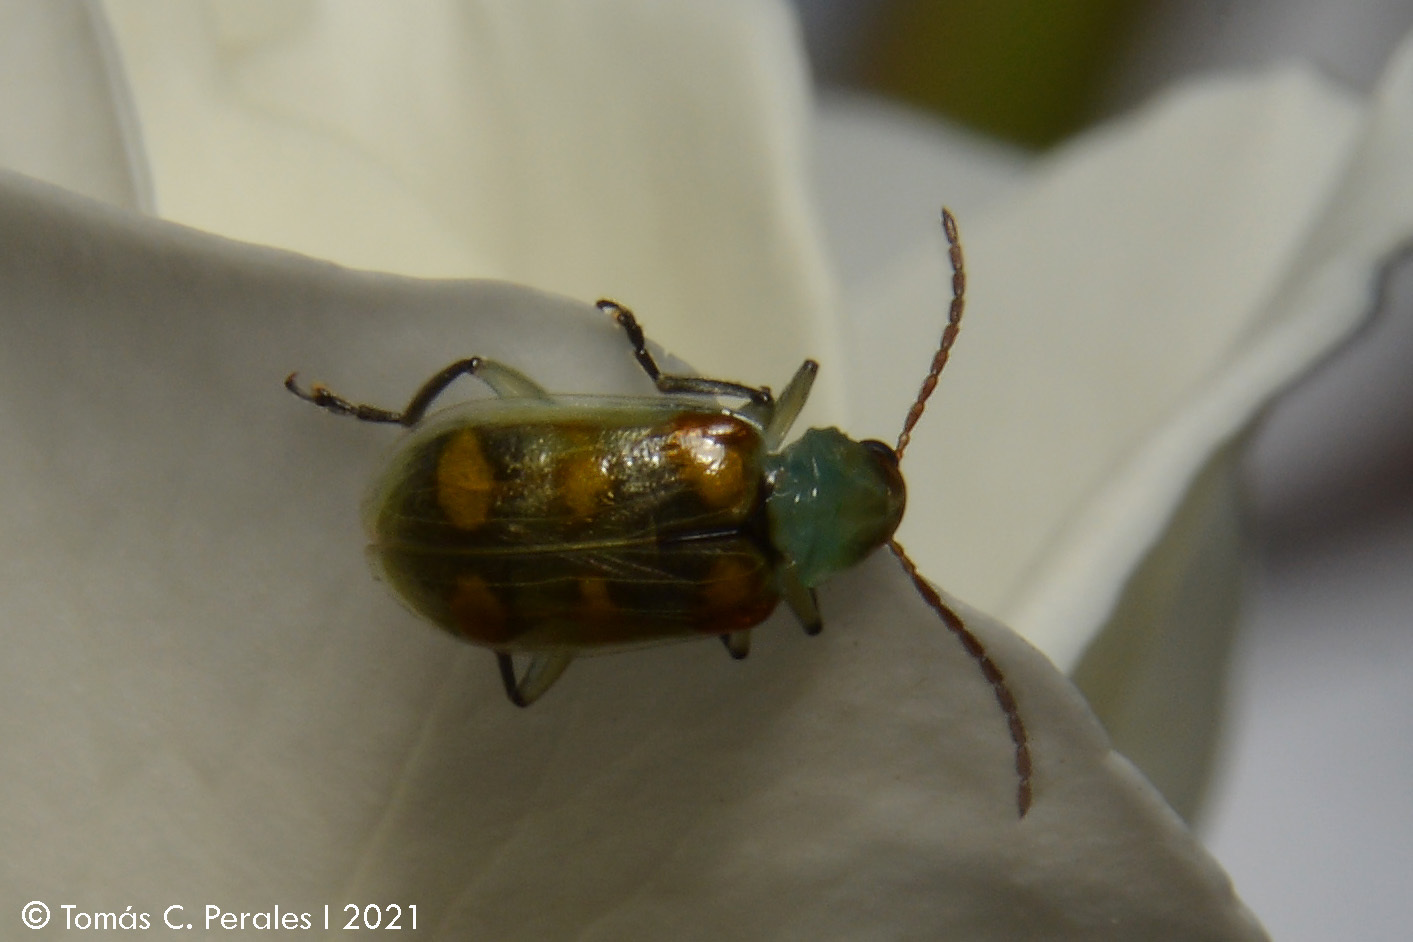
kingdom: Animalia
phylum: Arthropoda
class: Insecta
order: Coleoptera
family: Chrysomelidae
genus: Diabrotica
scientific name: Diabrotica speciosa
